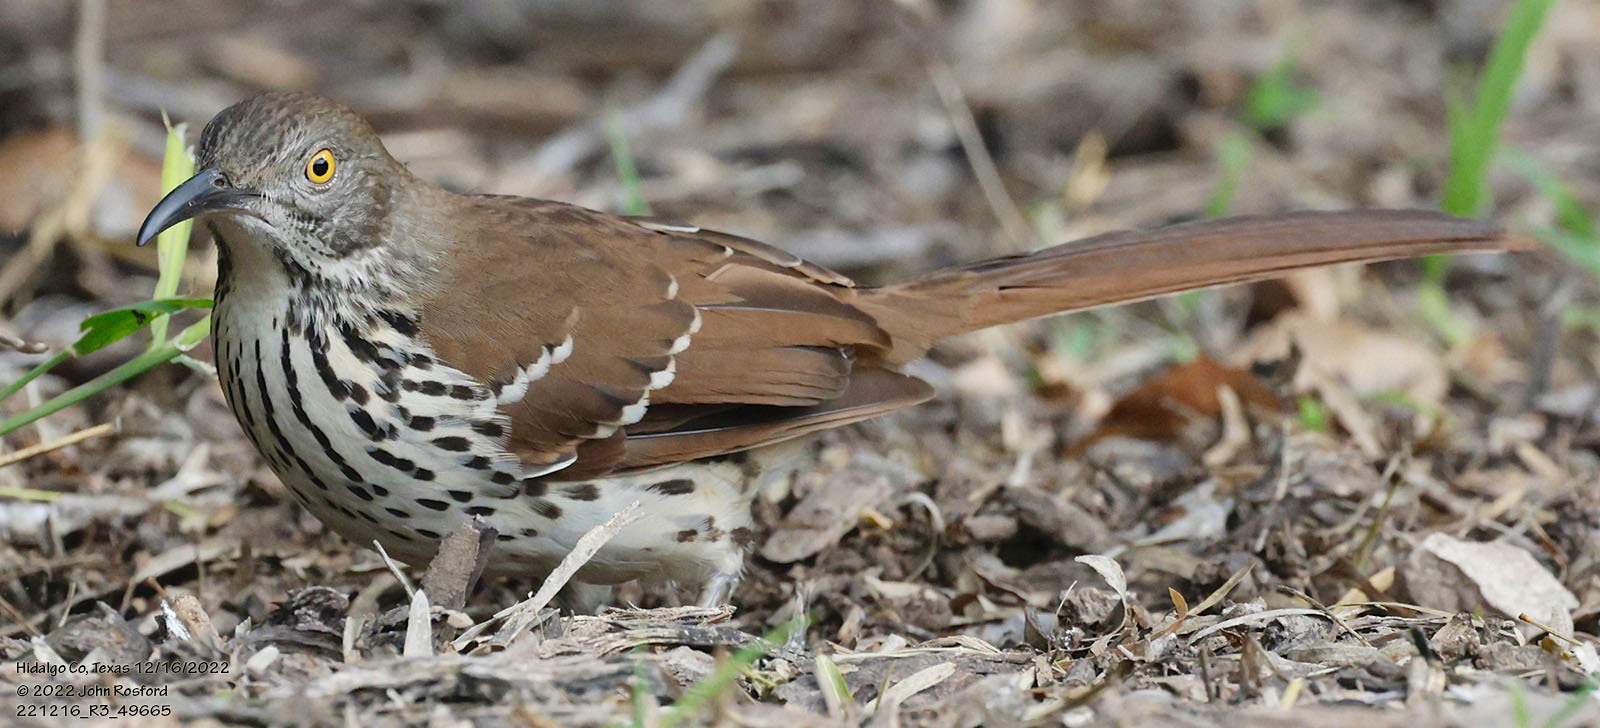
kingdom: Animalia
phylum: Chordata
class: Aves
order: Passeriformes
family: Mimidae
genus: Toxostoma
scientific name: Toxostoma longirostre
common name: Long-billed thrasher
